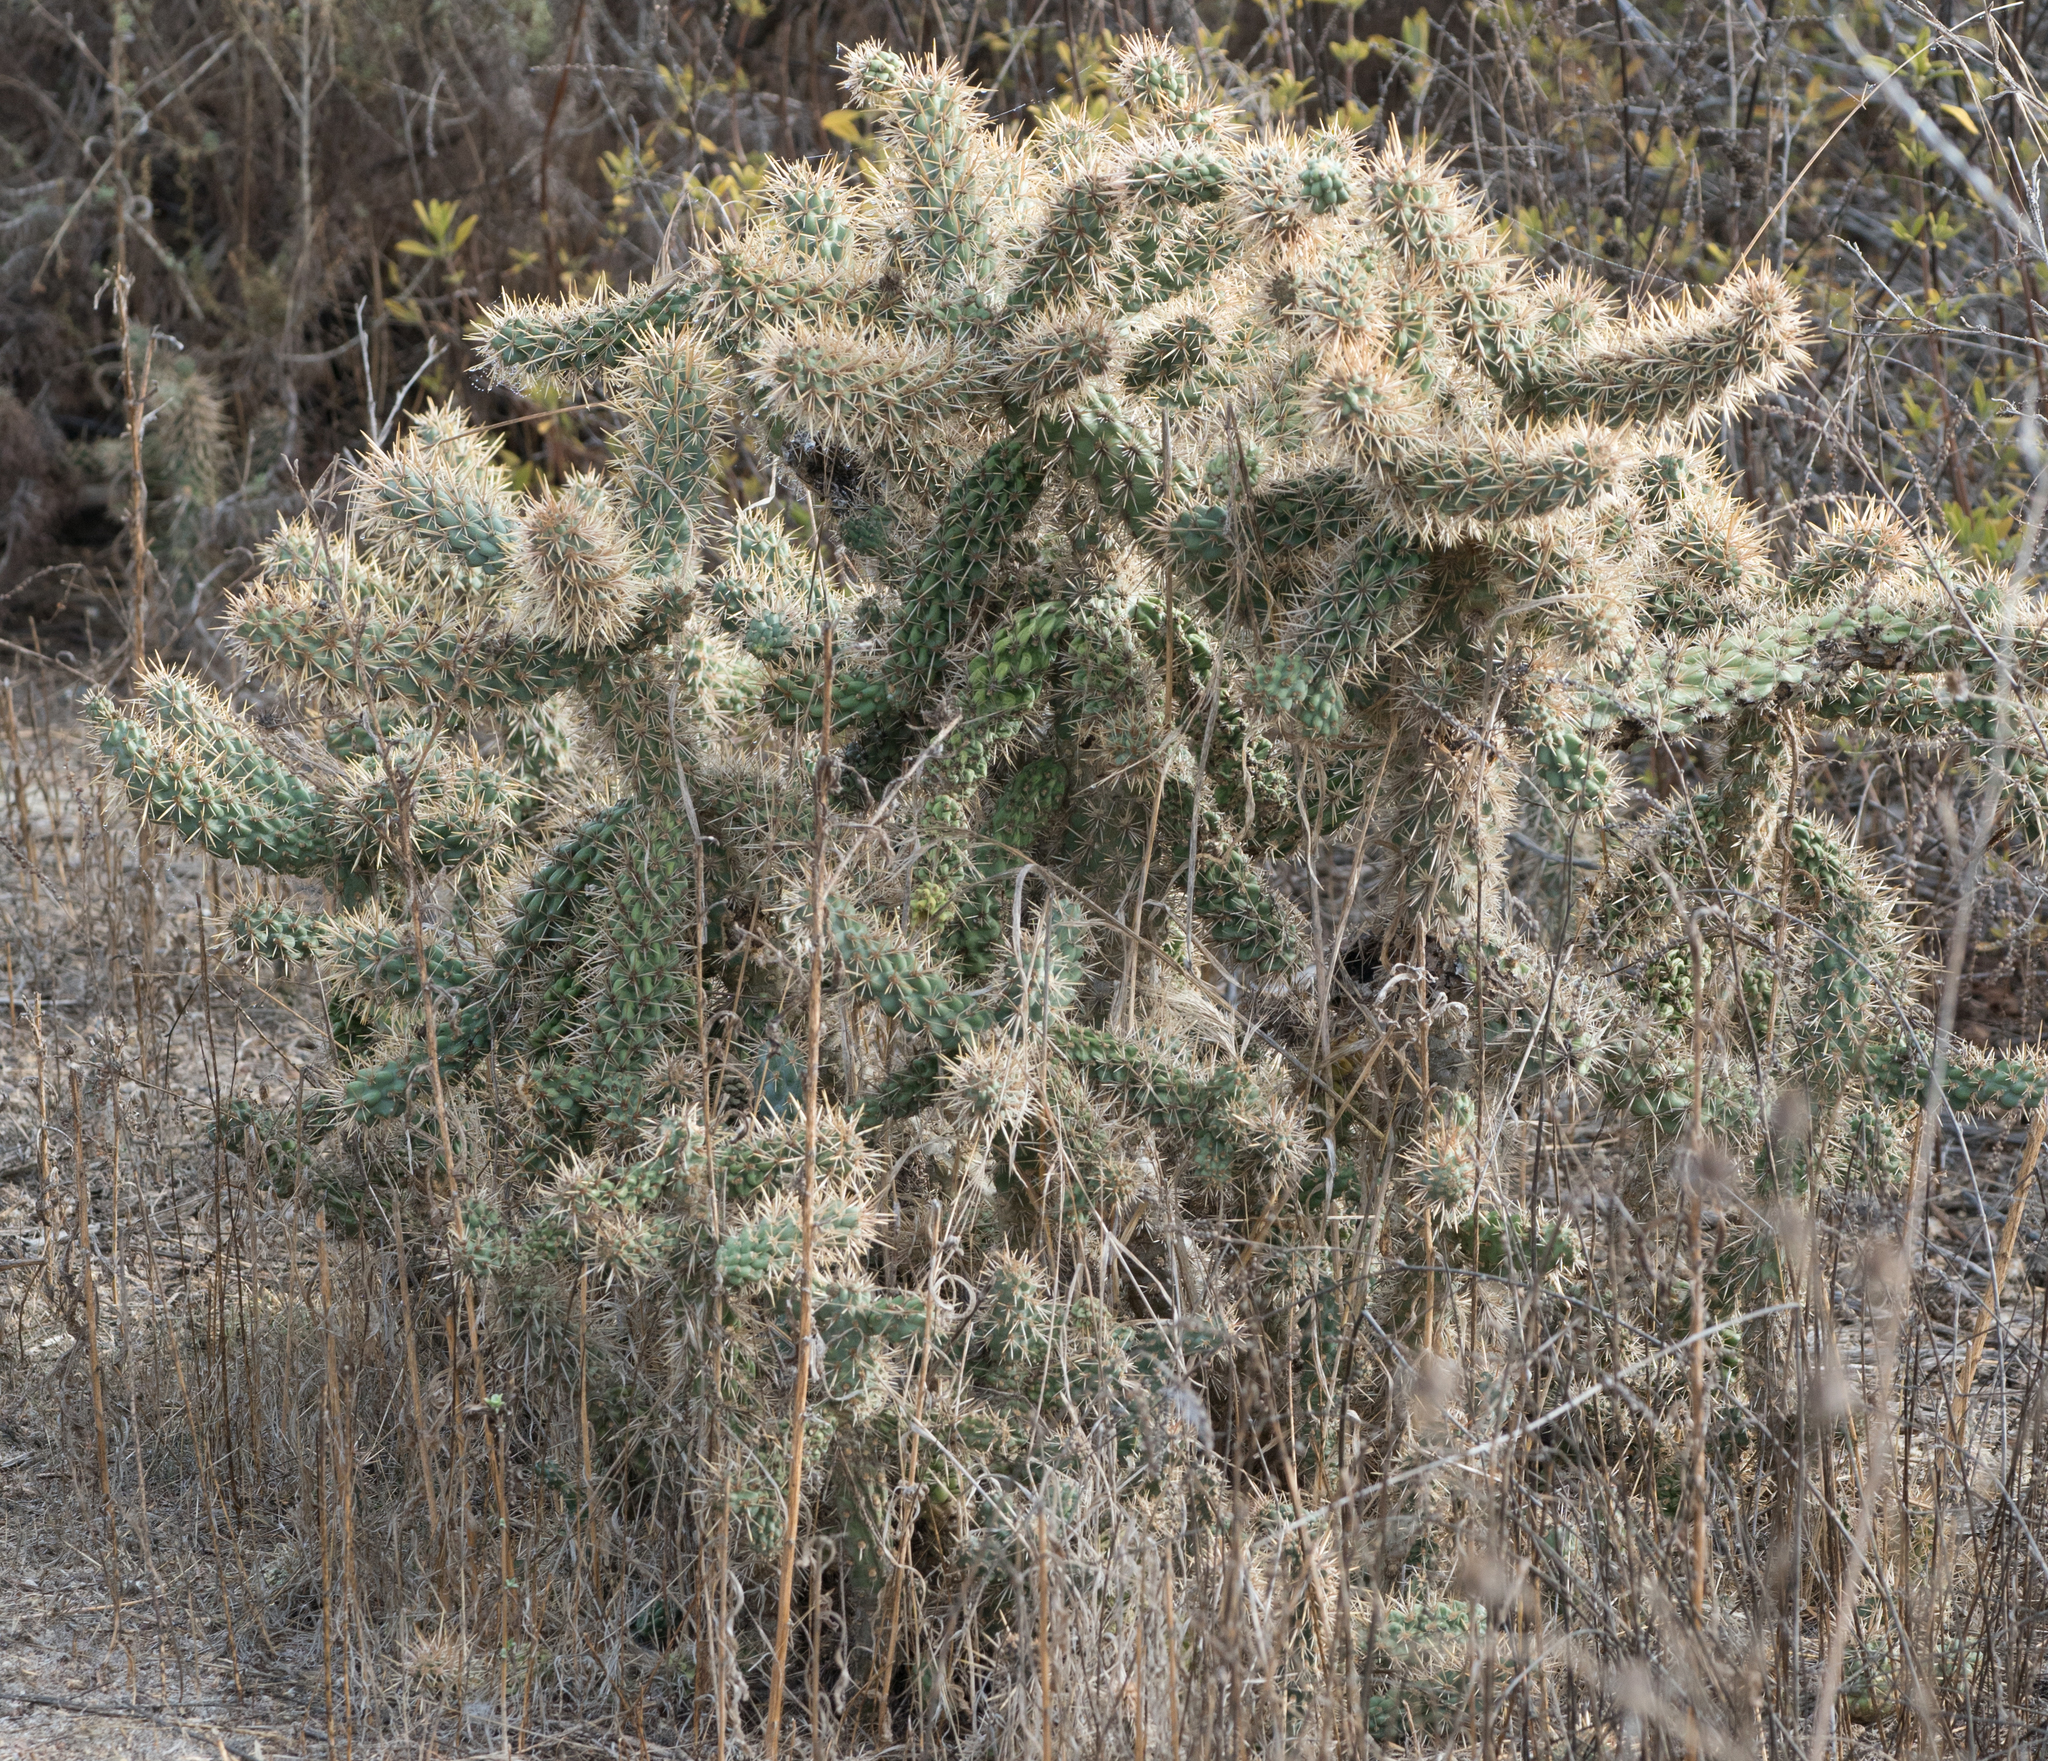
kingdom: Plantae
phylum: Tracheophyta
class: Magnoliopsida
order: Caryophyllales
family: Cactaceae
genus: Cylindropuntia
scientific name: Cylindropuntia prolifera
